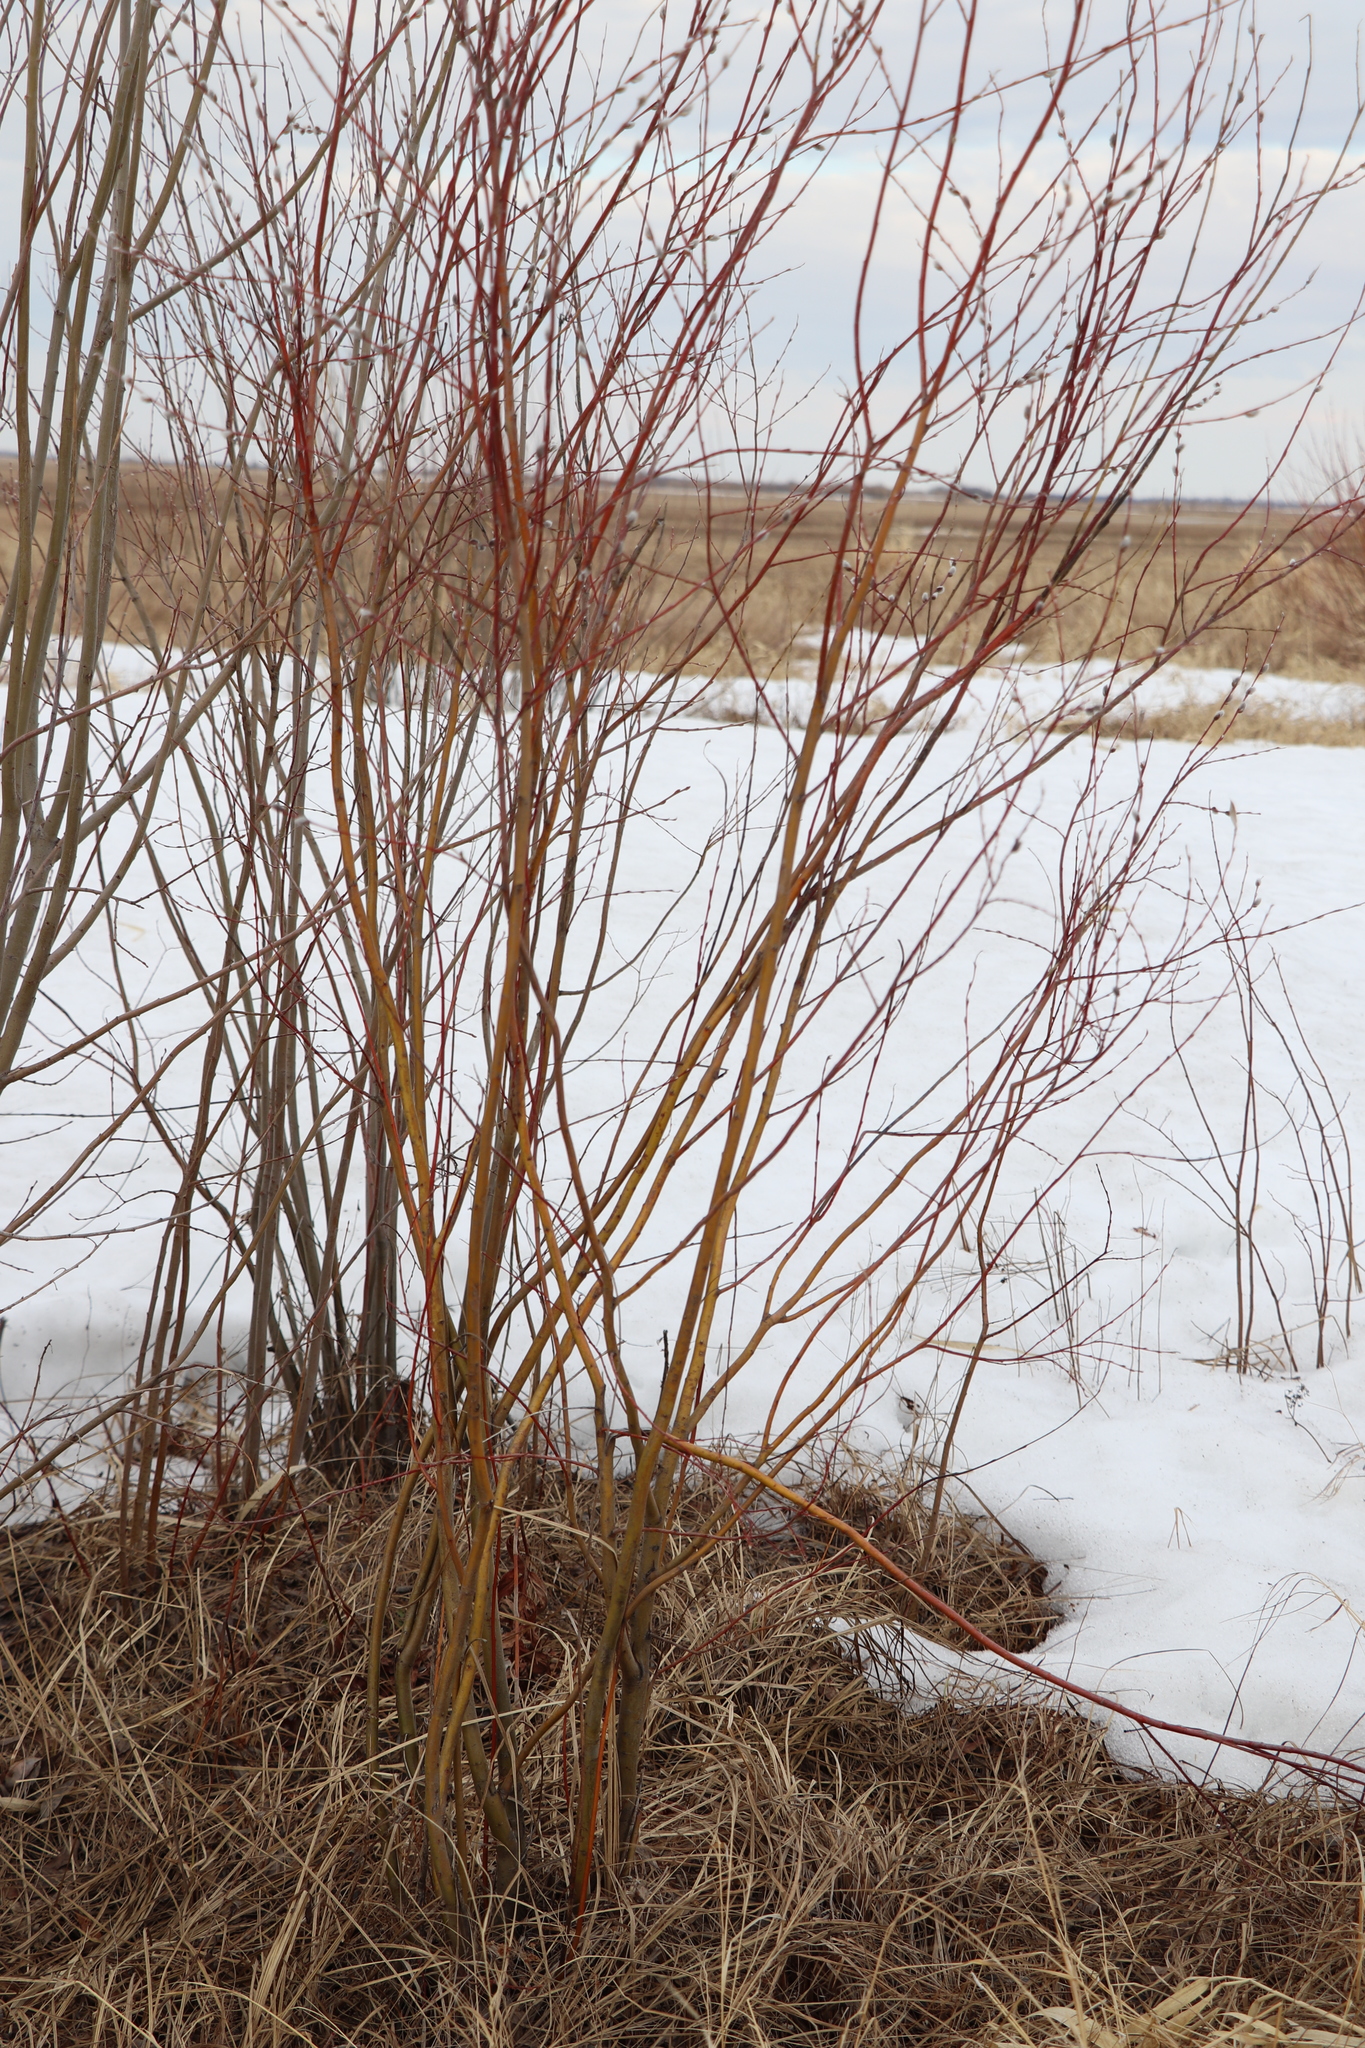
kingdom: Plantae
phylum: Tracheophyta
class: Magnoliopsida
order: Malpighiales
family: Salicaceae
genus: Salix
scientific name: Salix rosmarinifolia
